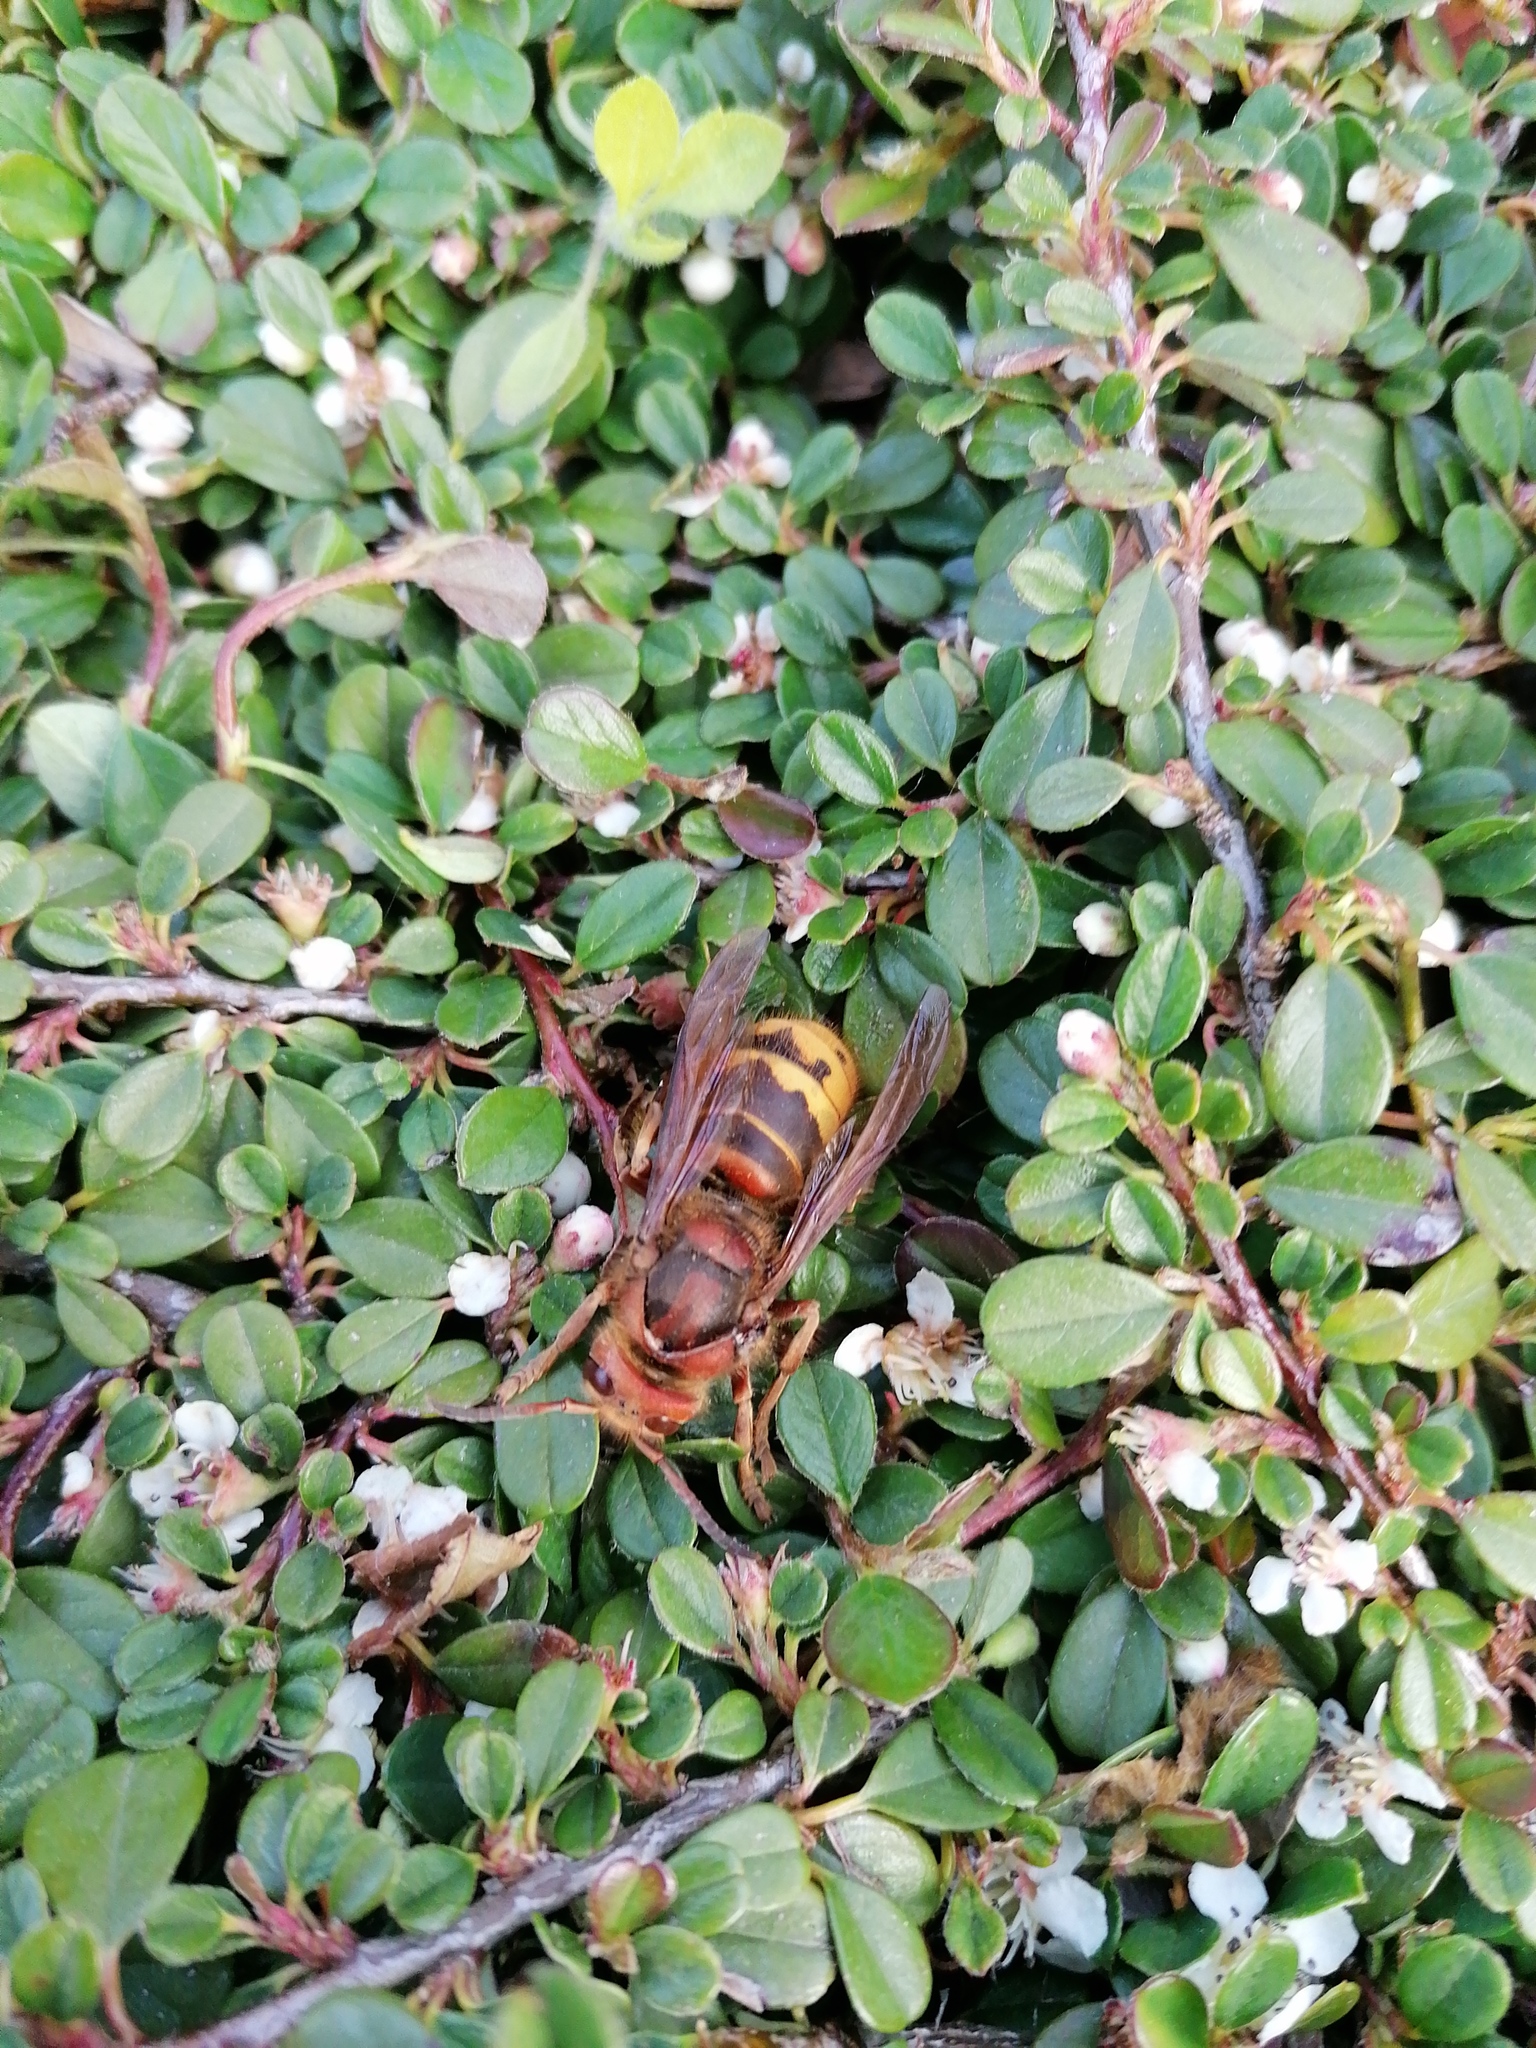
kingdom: Animalia
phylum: Arthropoda
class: Insecta
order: Hymenoptera
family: Vespidae
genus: Vespa
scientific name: Vespa crabro
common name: Hornet
